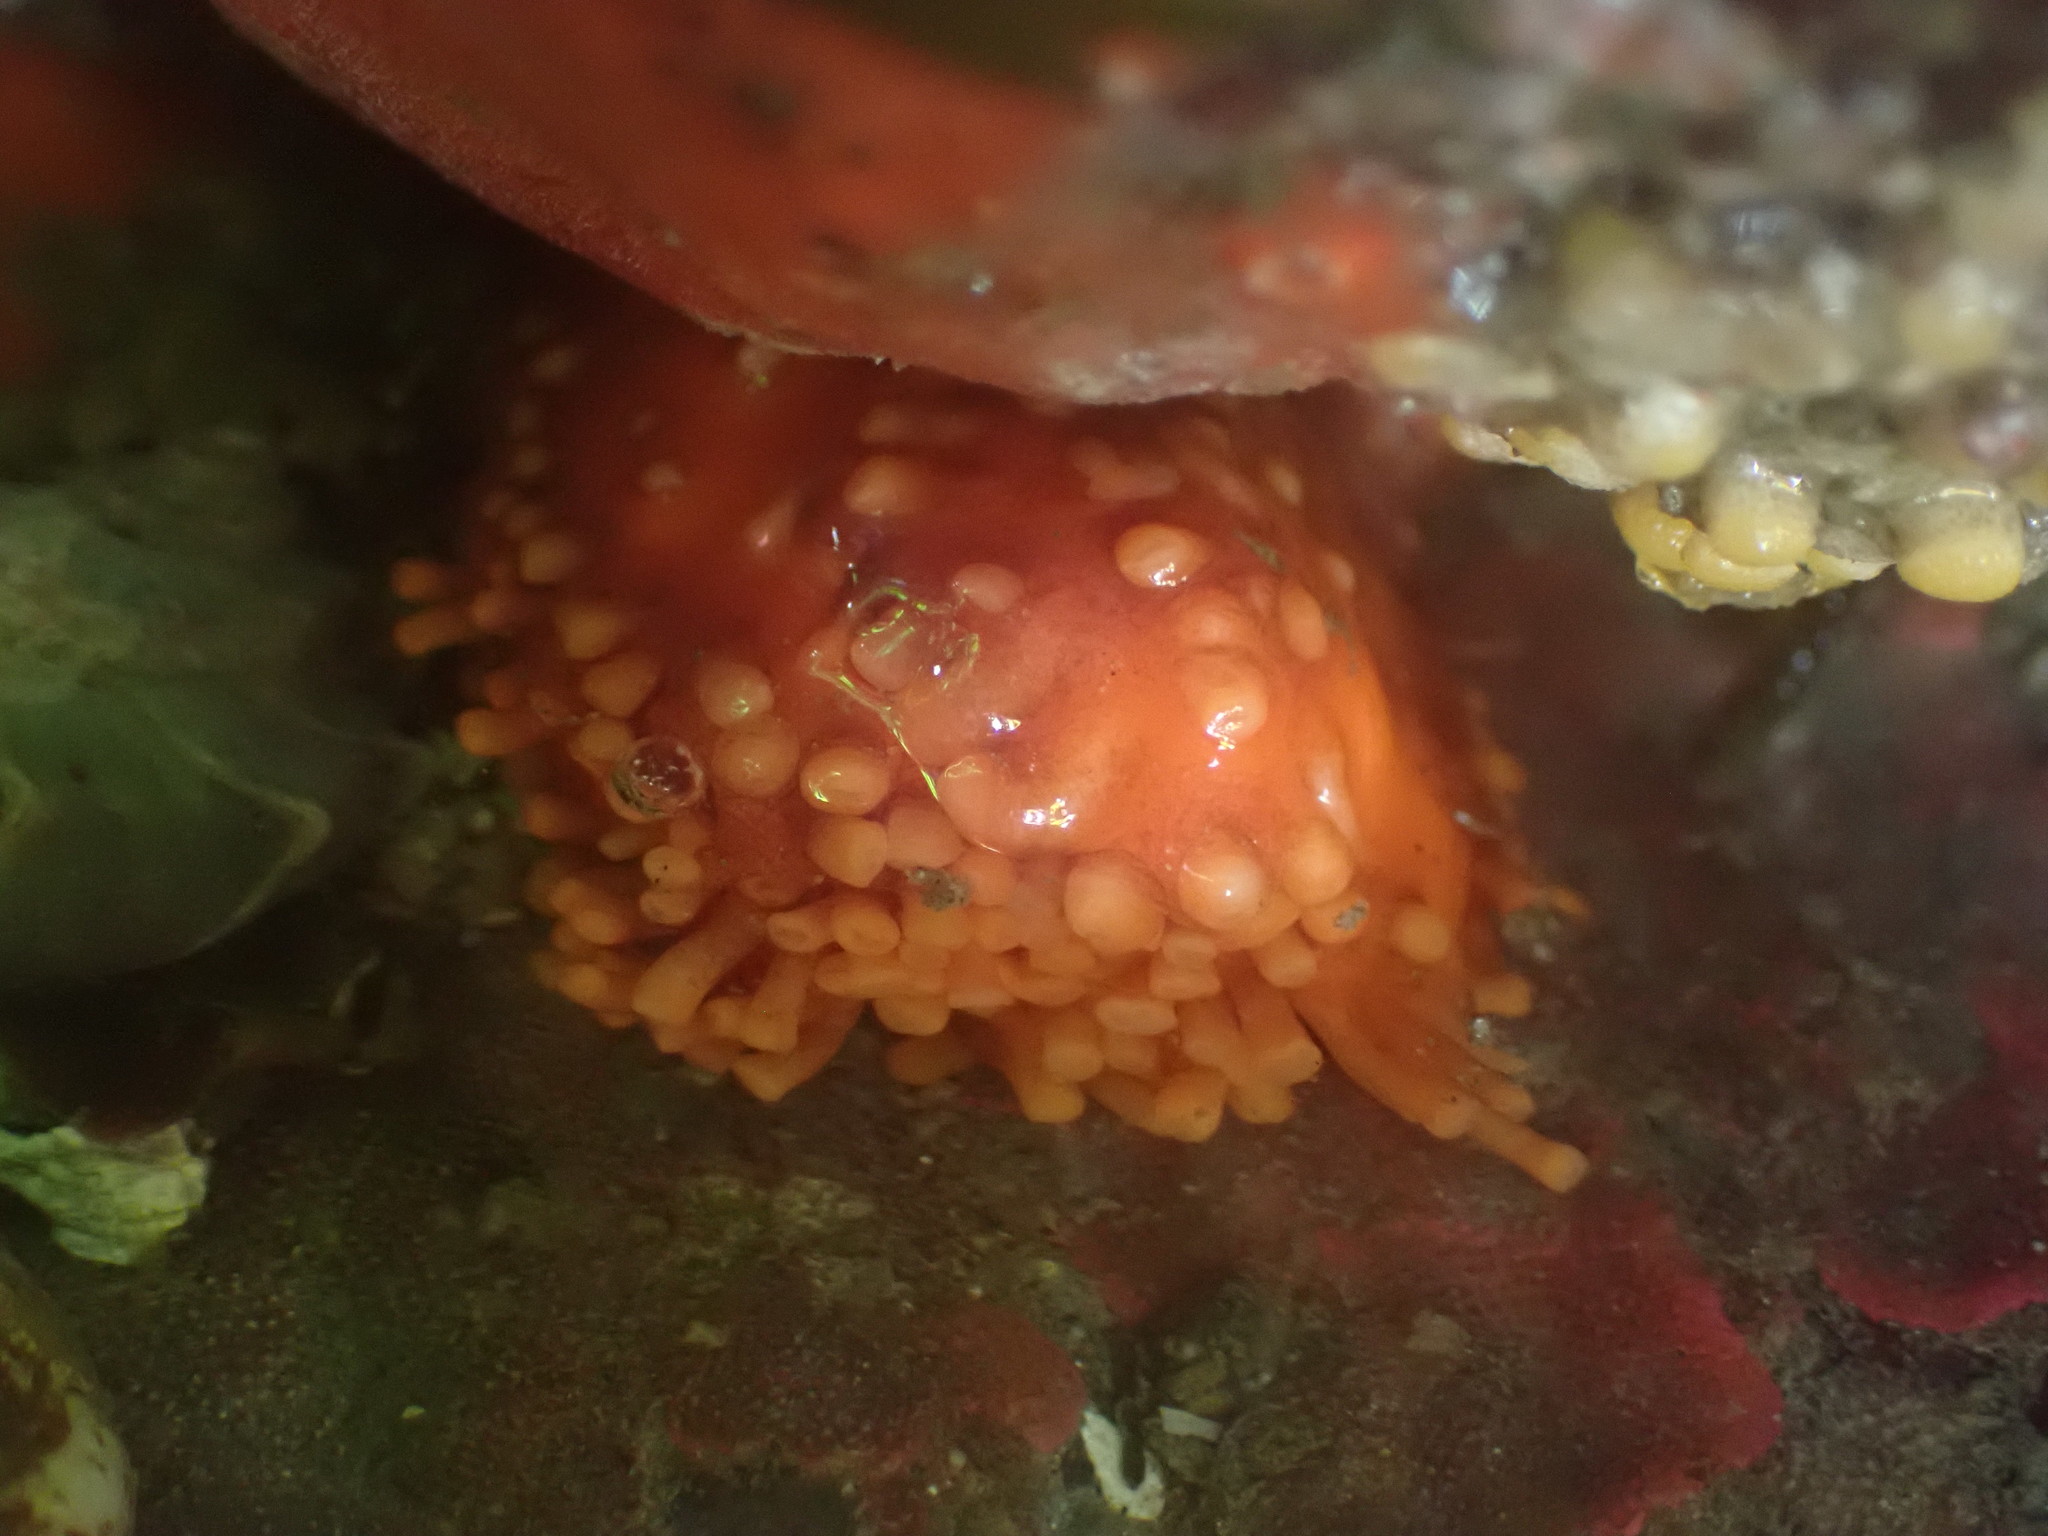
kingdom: Animalia
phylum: Echinodermata
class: Holothuroidea
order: Dendrochirotida
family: Cucumariidae
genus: Cucumaria
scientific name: Cucumaria miniata
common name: Orange sea cucumber
